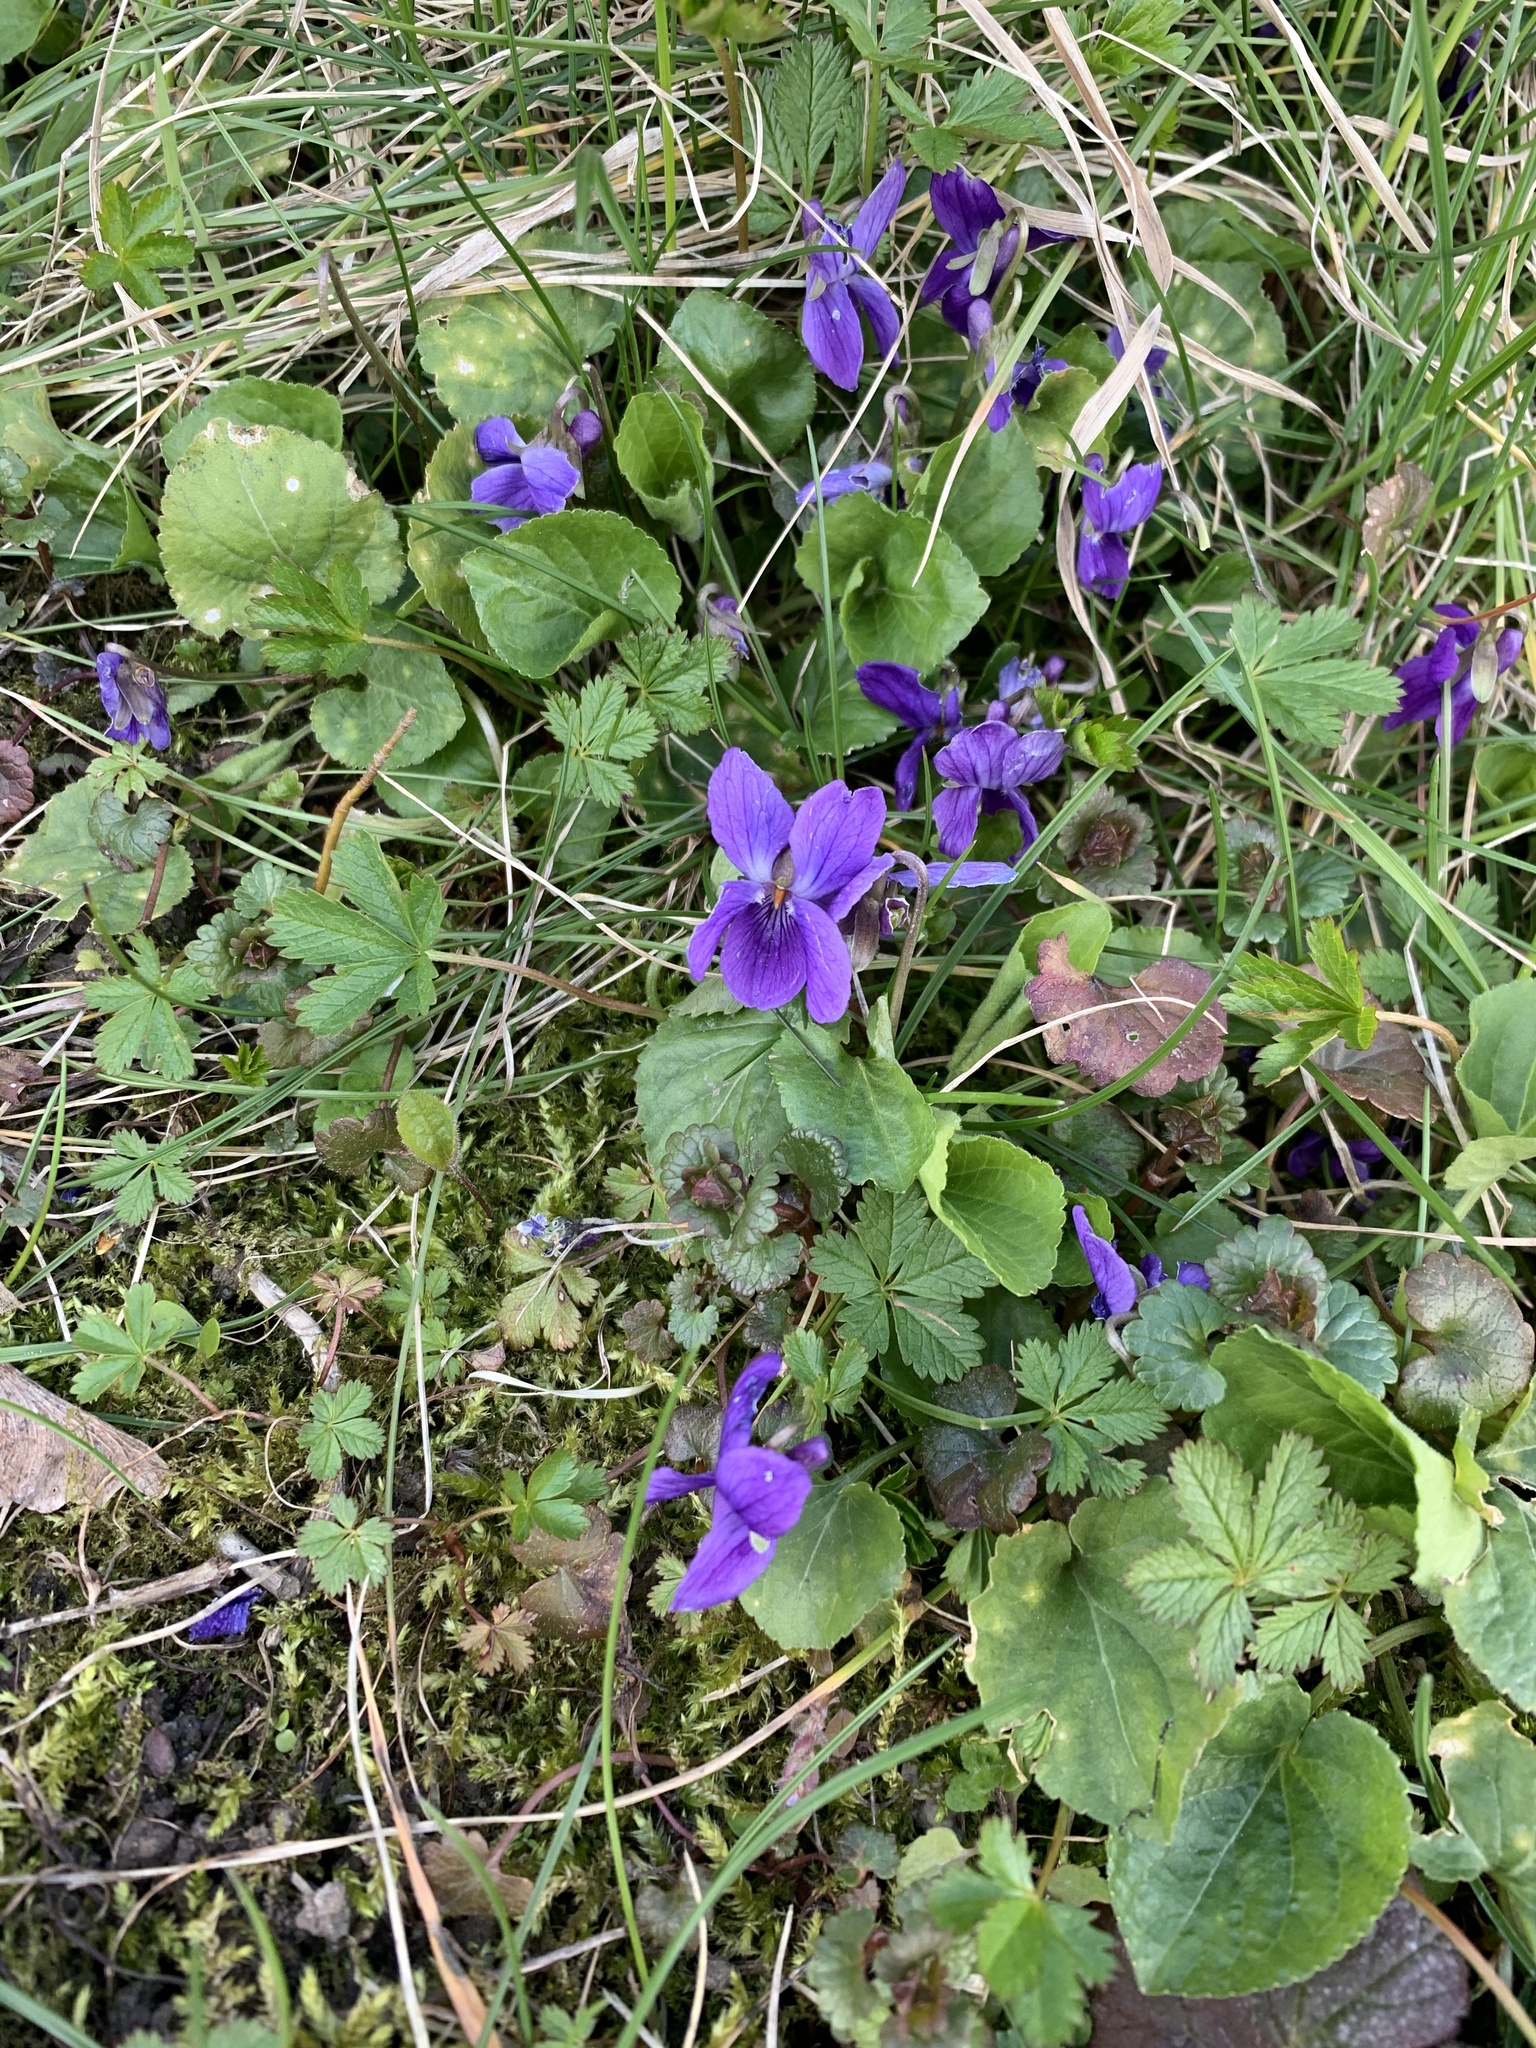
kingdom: Plantae
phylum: Tracheophyta
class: Magnoliopsida
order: Malpighiales
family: Violaceae
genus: Viola
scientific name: Viola odorata
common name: Sweet violet
